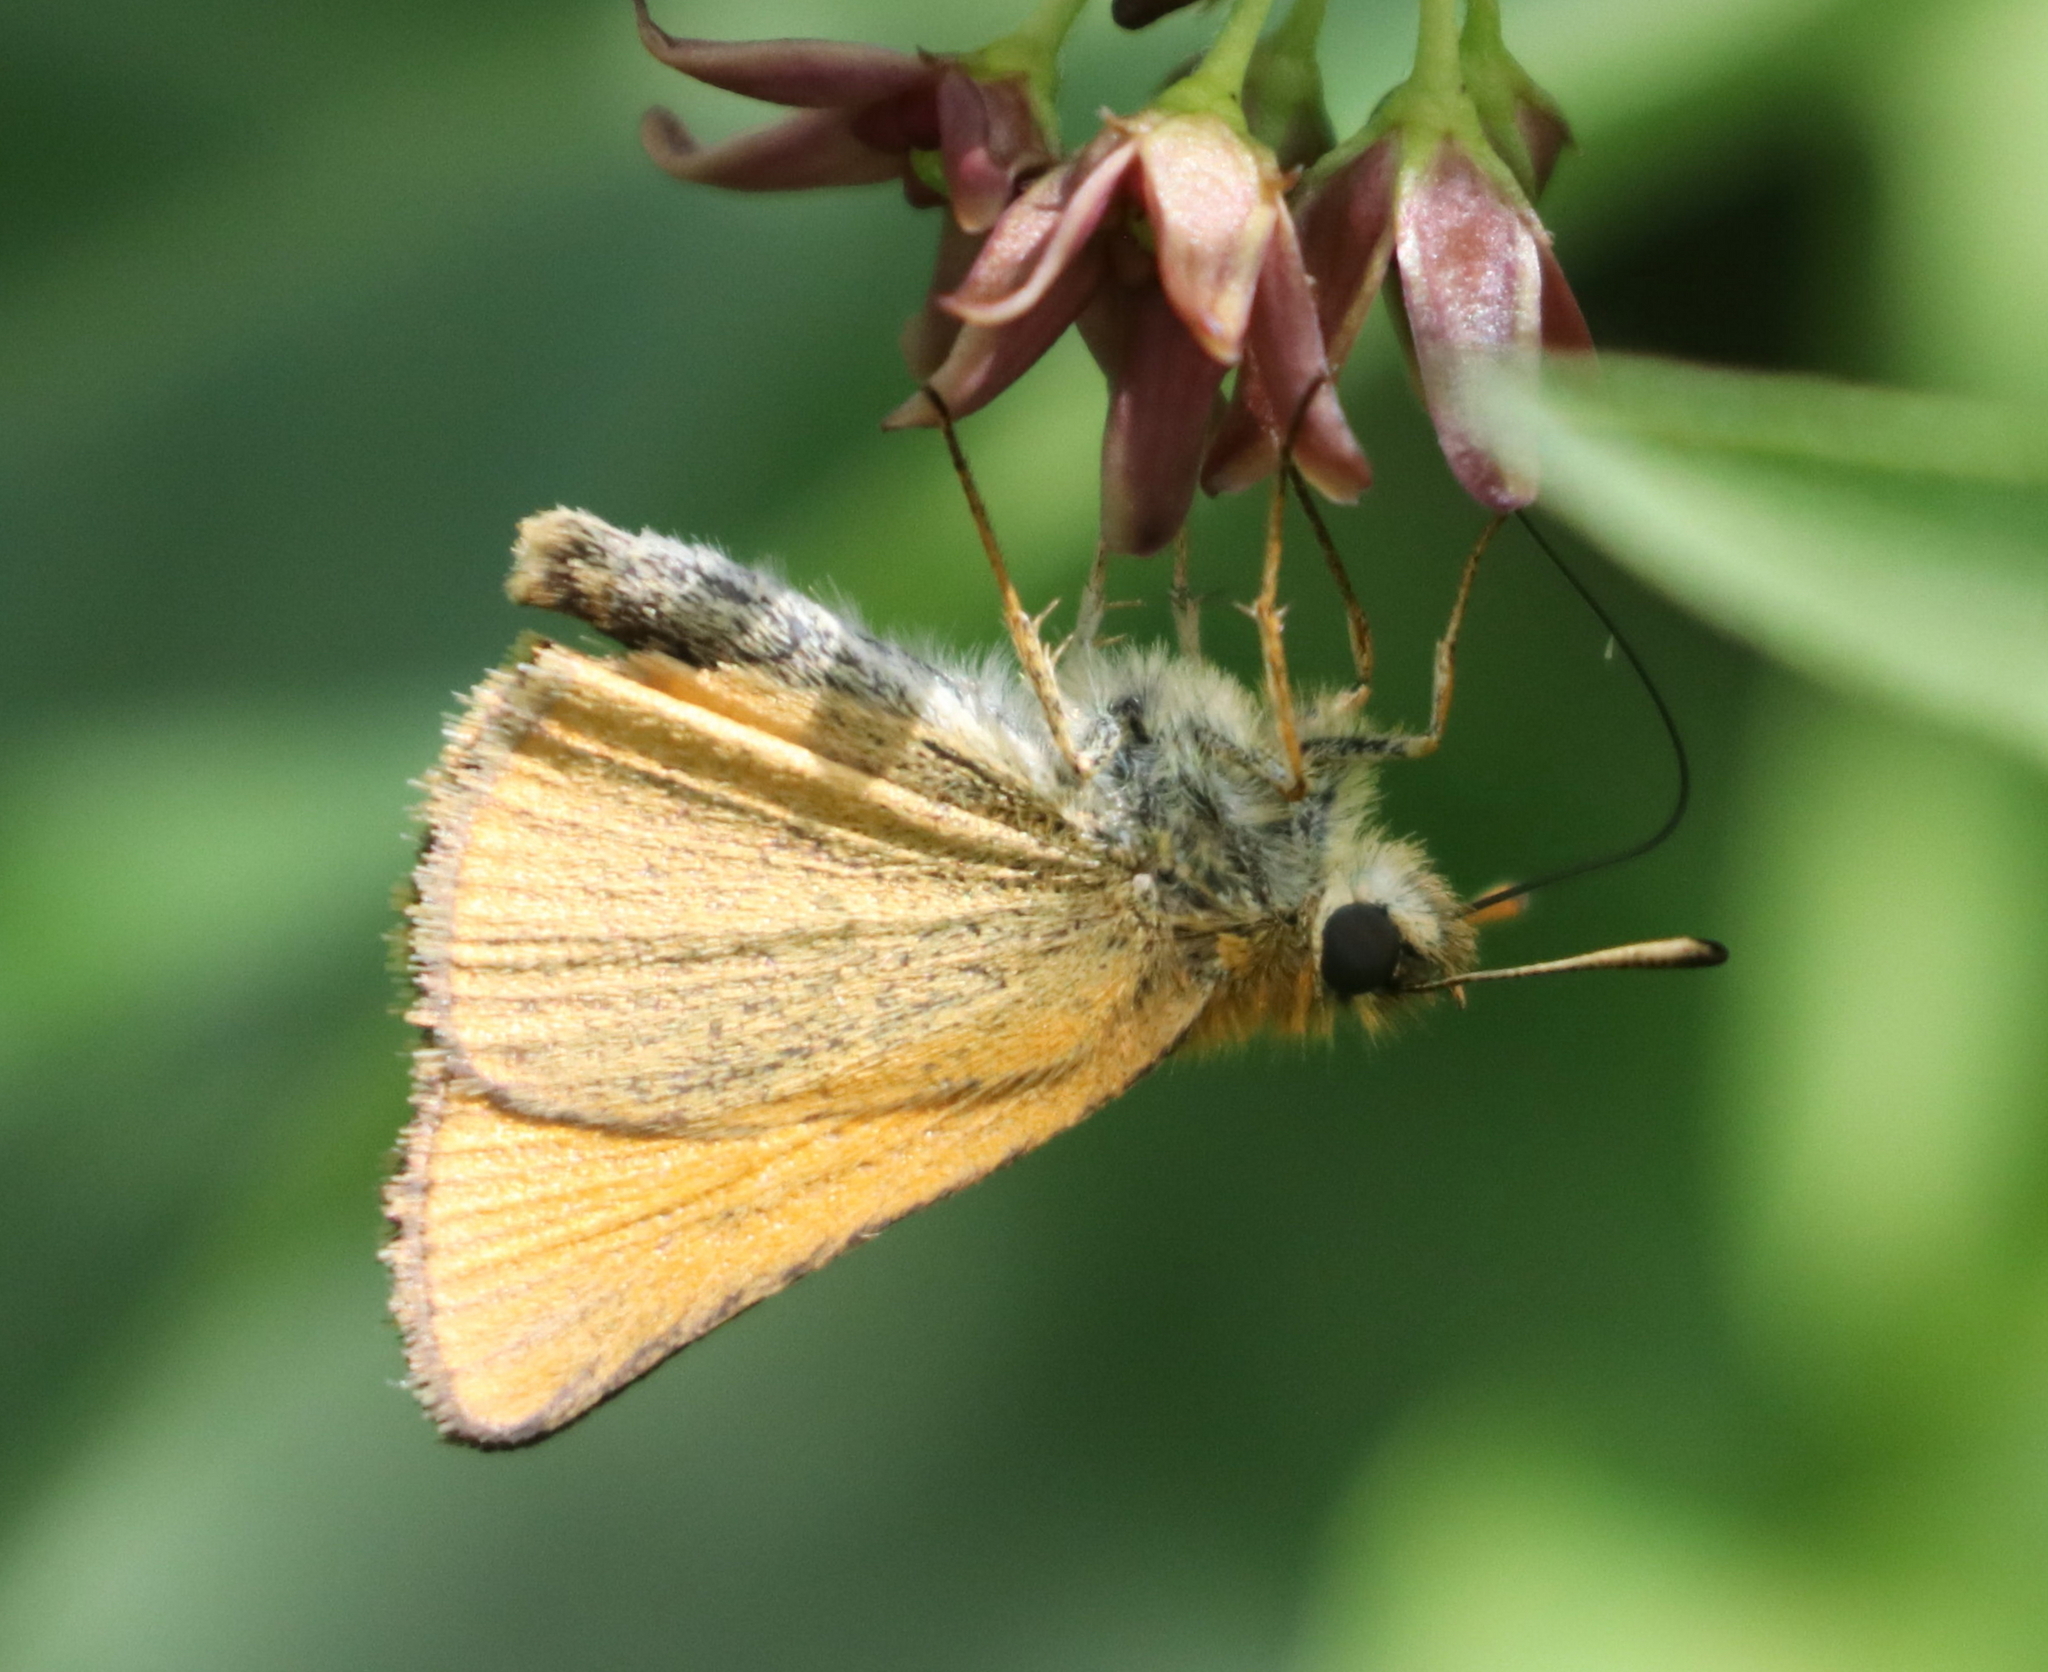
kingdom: Animalia
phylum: Arthropoda
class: Insecta
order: Lepidoptera
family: Hesperiidae
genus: Thymelicus
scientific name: Thymelicus lineola
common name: Essex skipper
